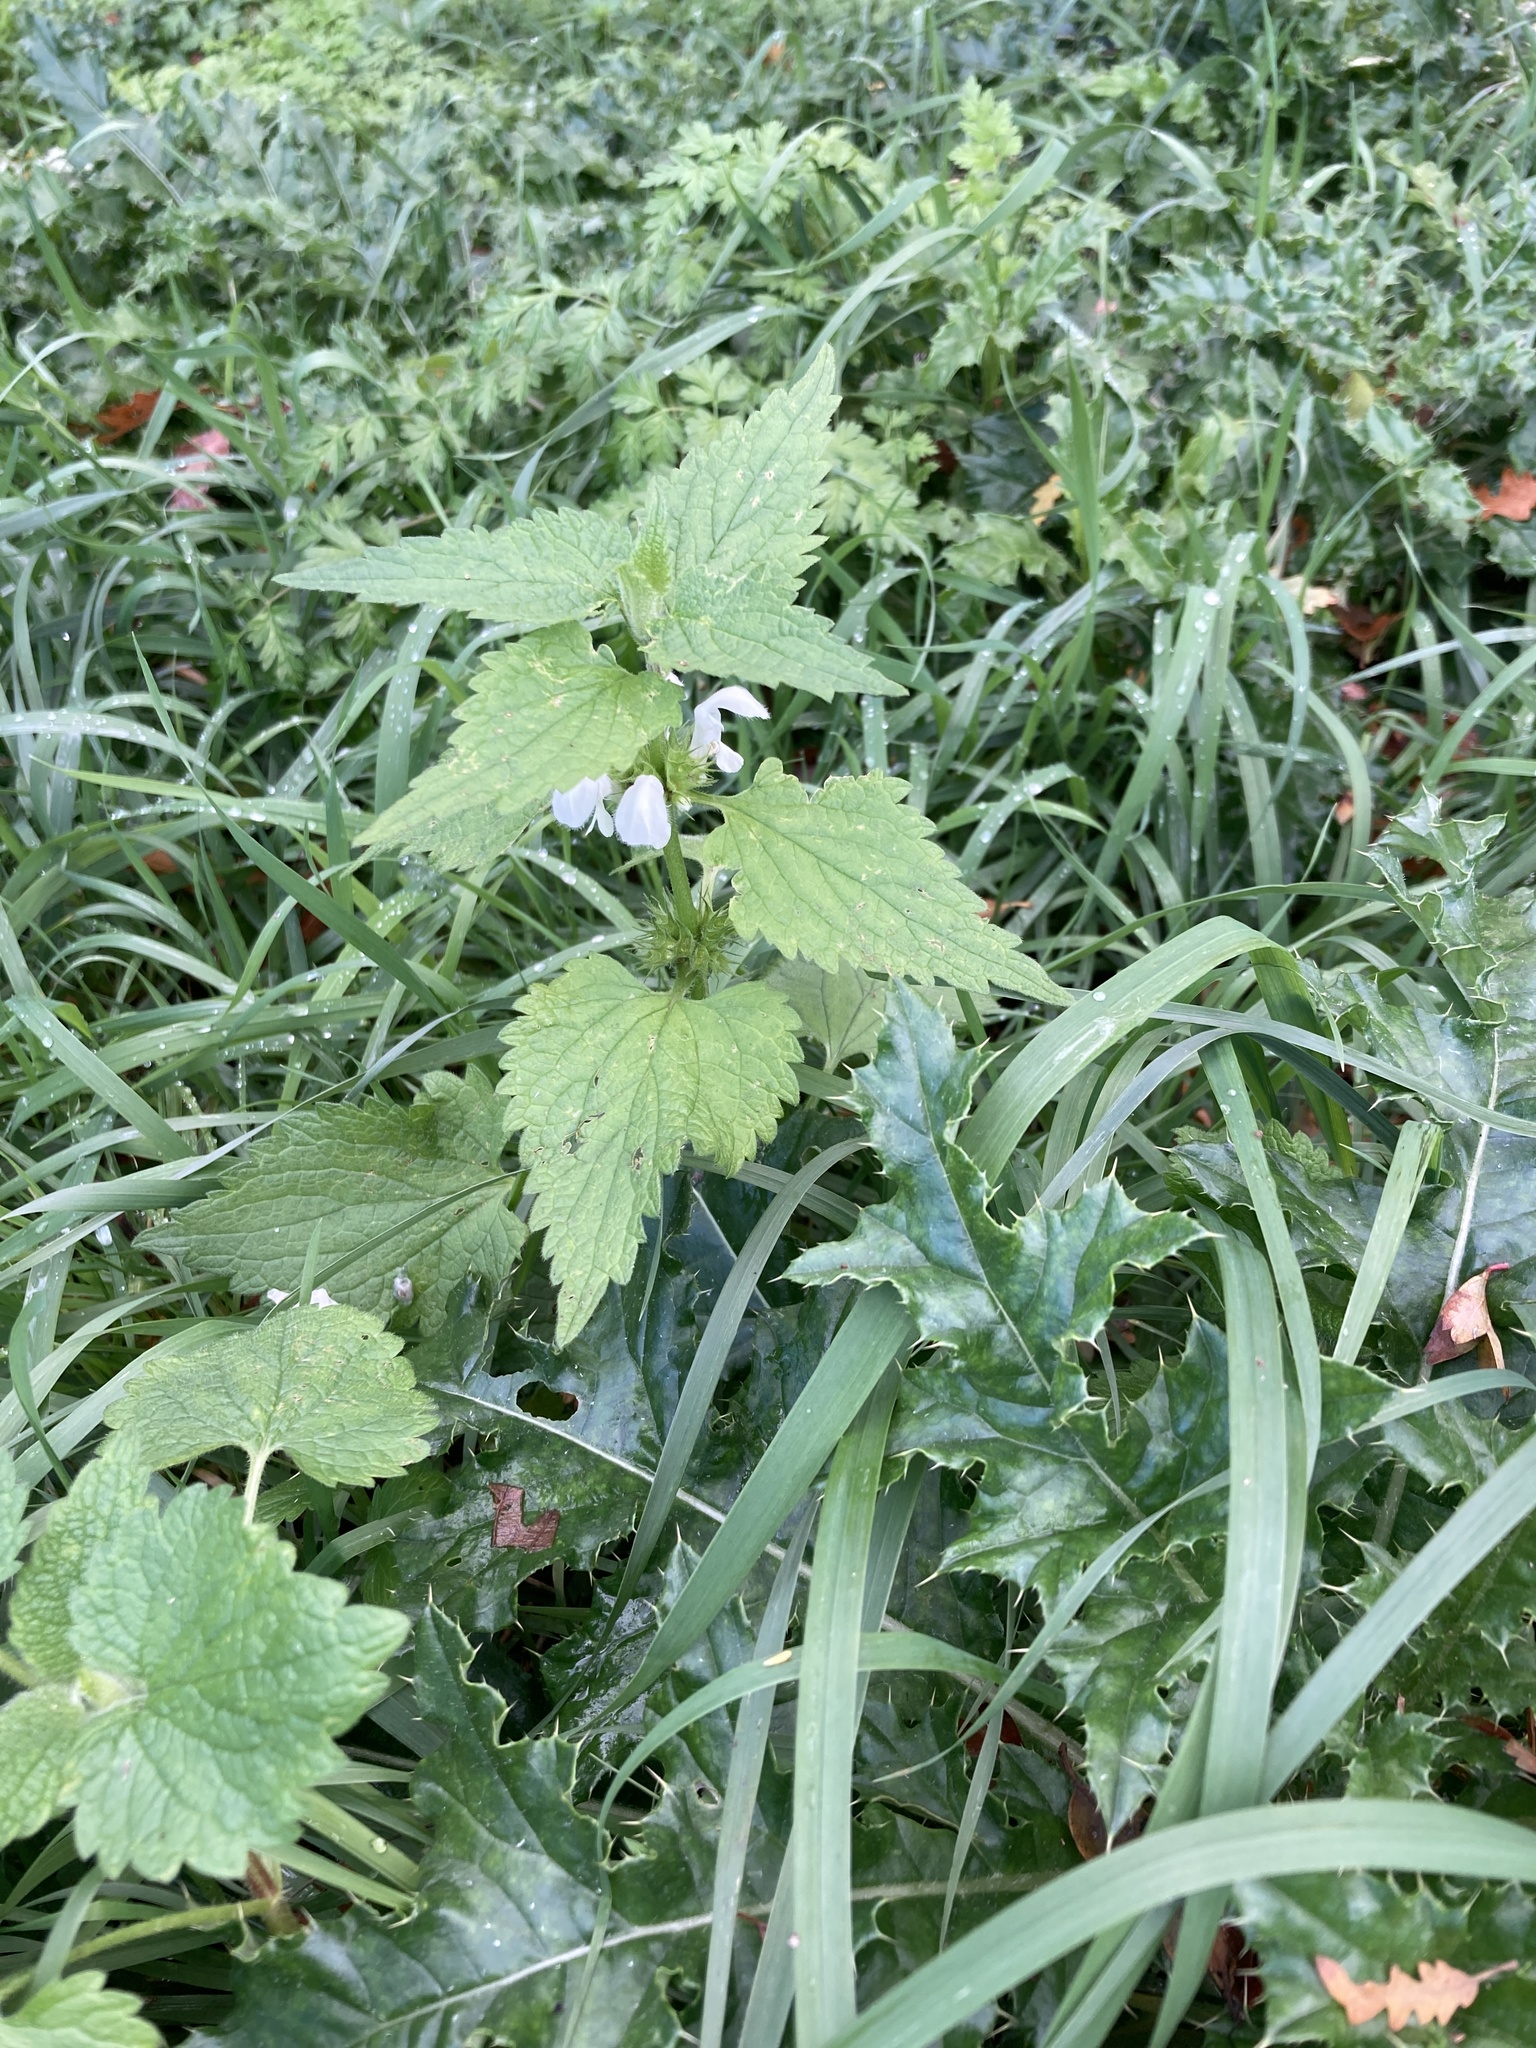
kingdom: Plantae
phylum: Tracheophyta
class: Magnoliopsida
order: Lamiales
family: Lamiaceae
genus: Lamium
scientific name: Lamium album
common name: White dead-nettle
